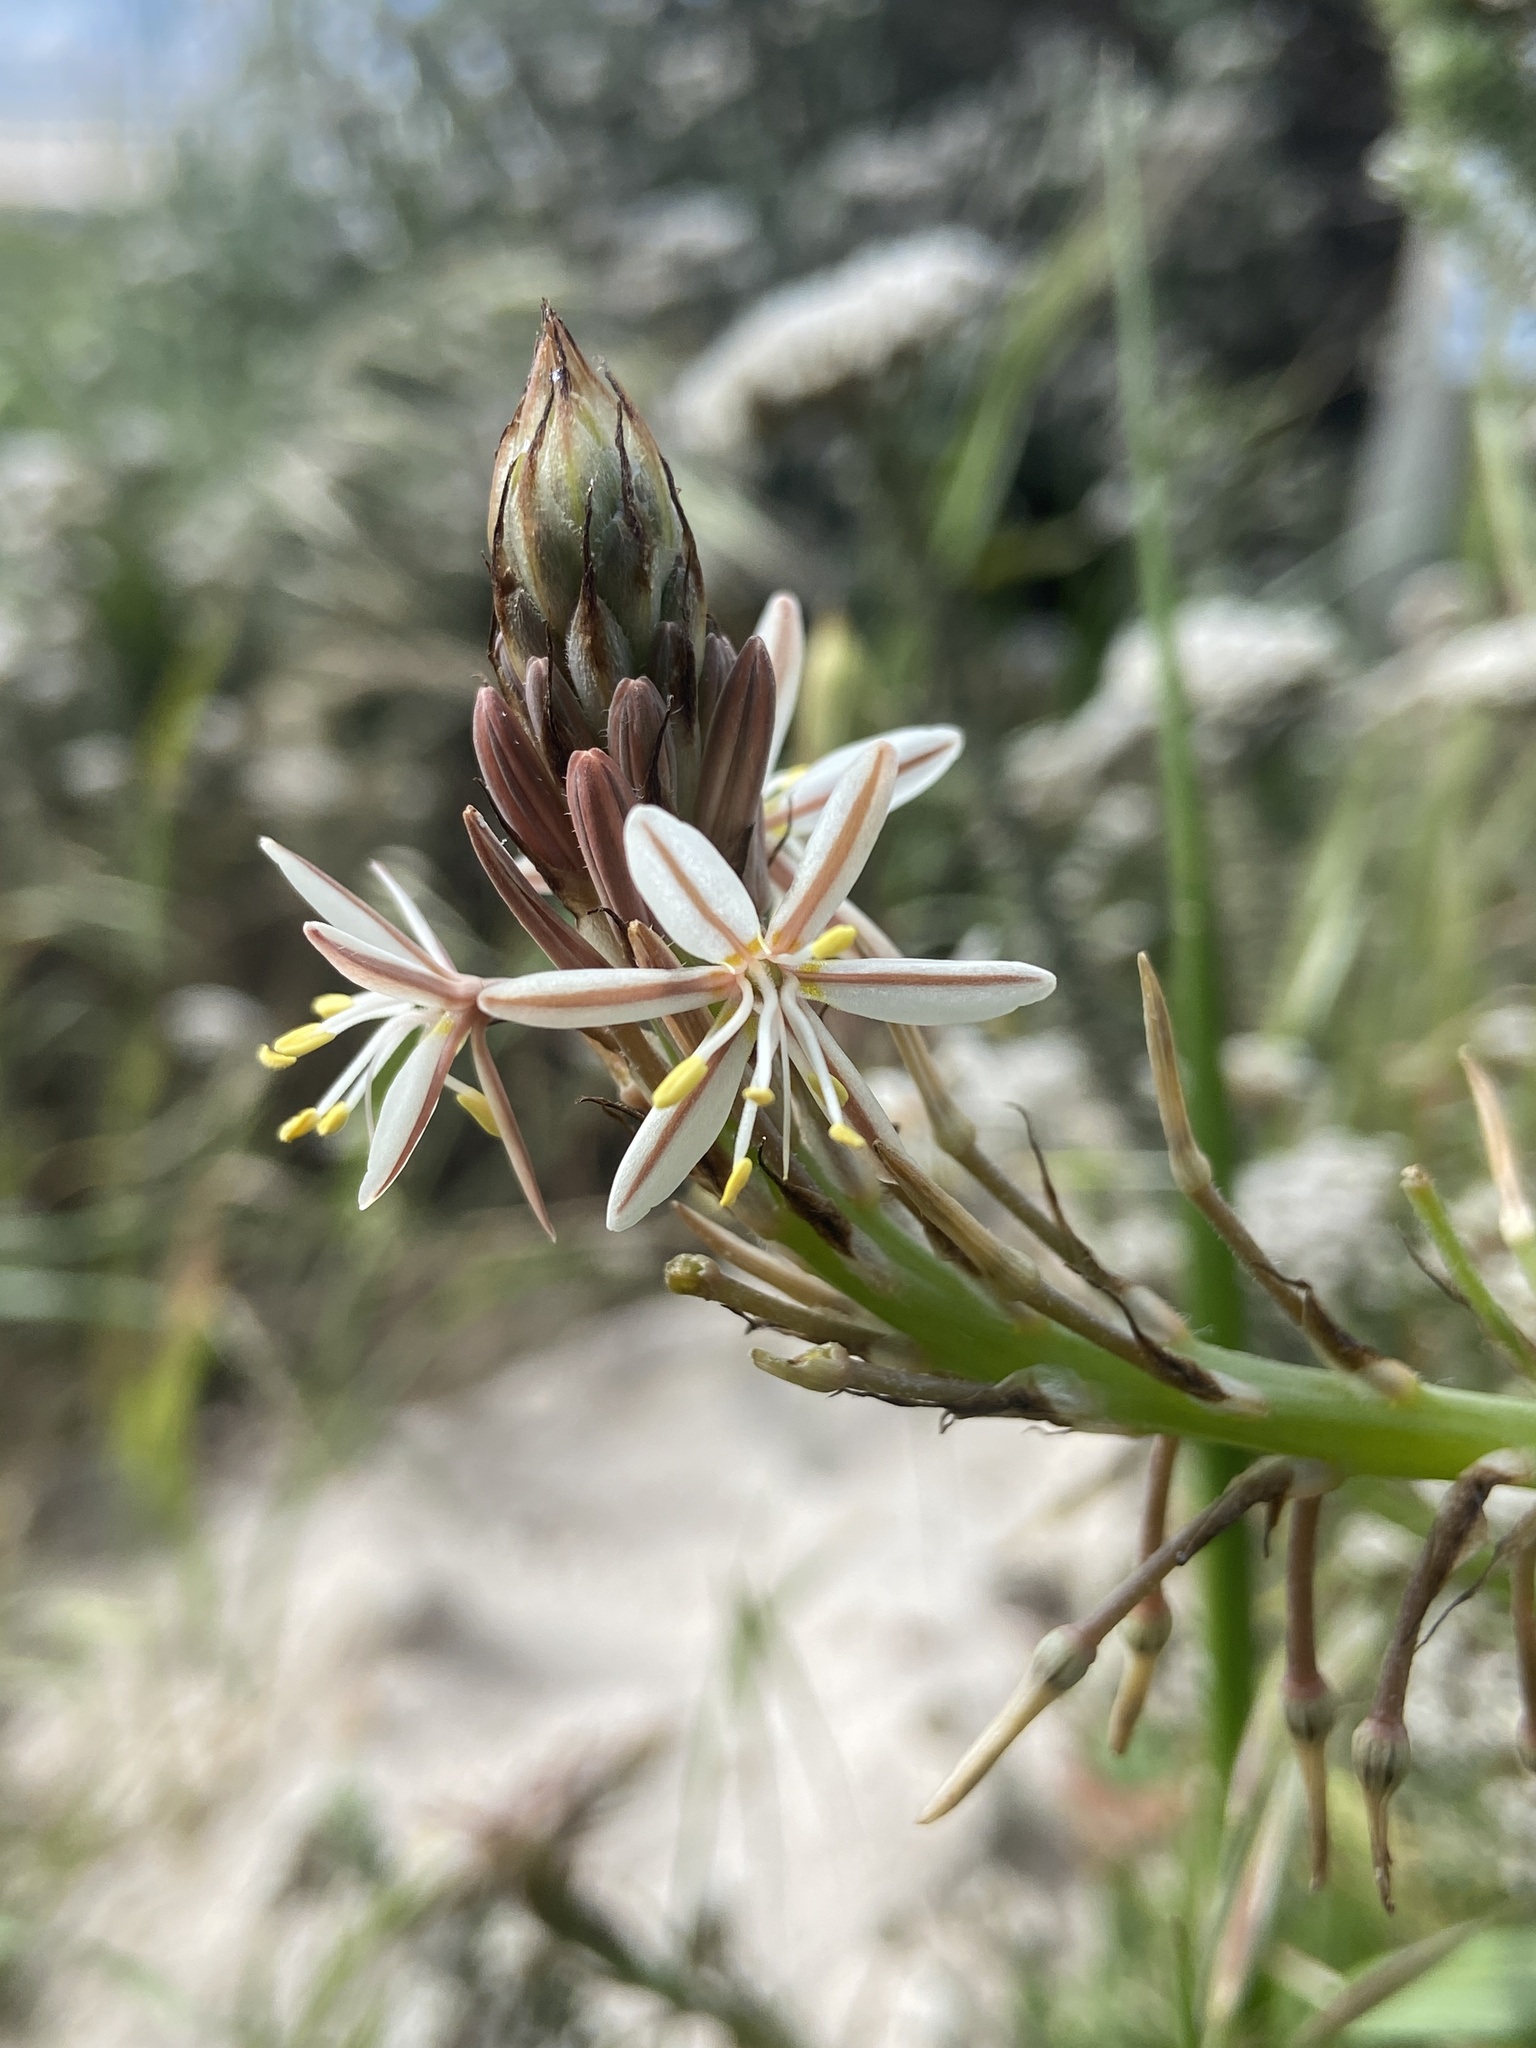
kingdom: Plantae
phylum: Tracheophyta
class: Liliopsida
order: Asparagales
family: Asphodelaceae
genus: Trachyandra
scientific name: Trachyandra ciliata
